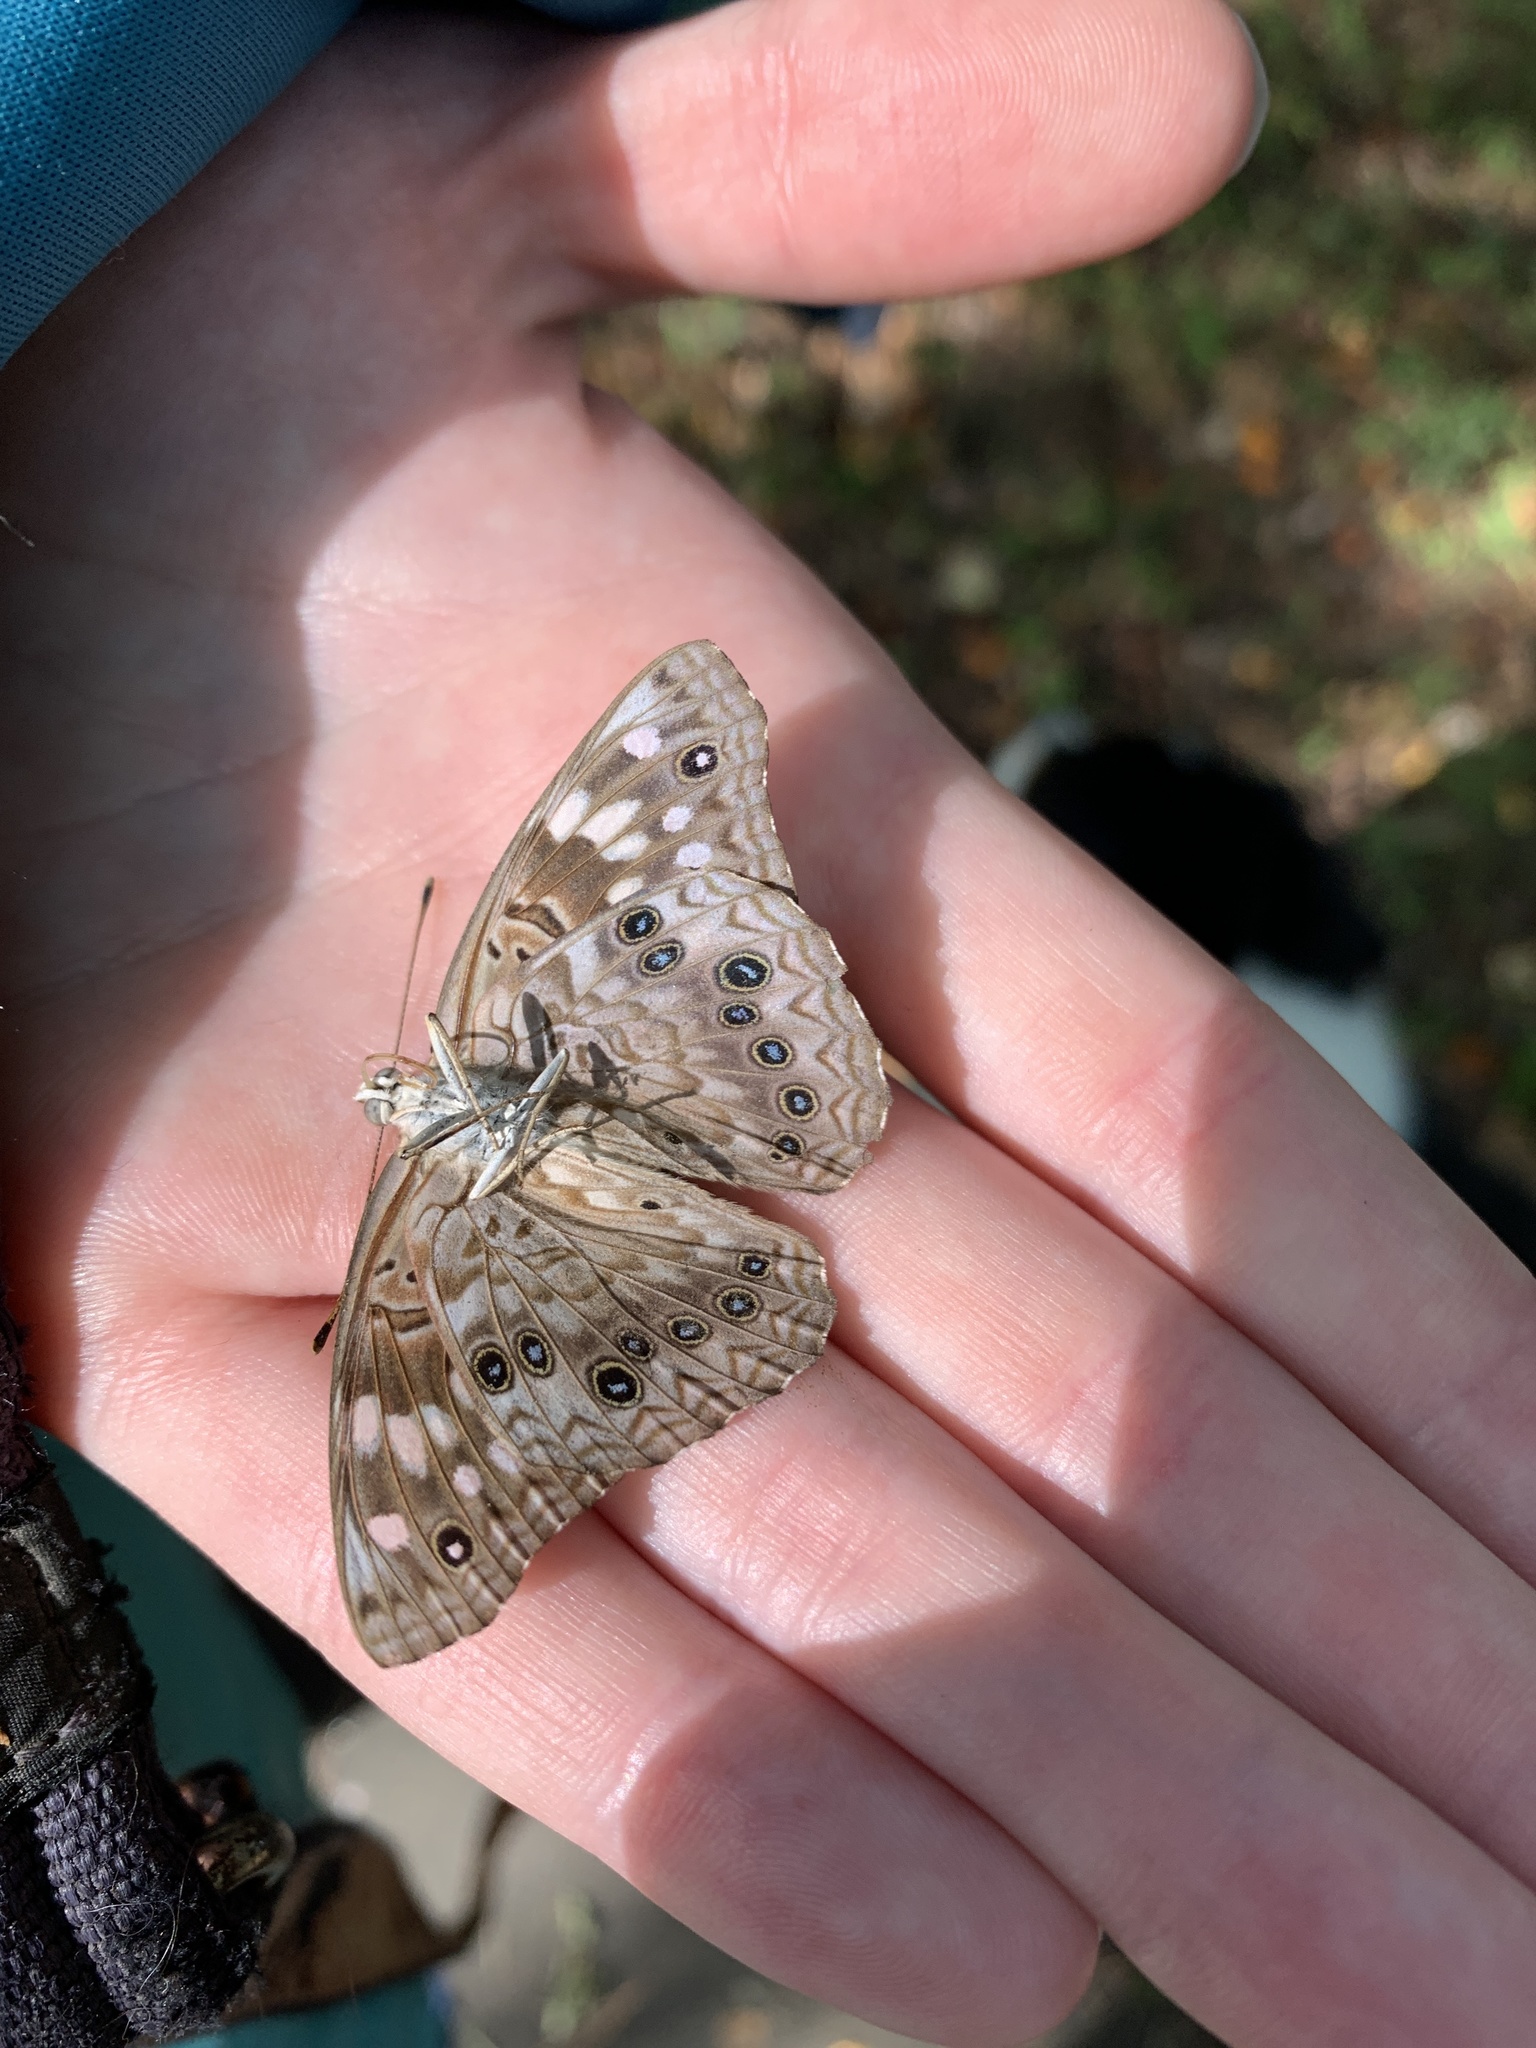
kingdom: Animalia
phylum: Arthropoda
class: Insecta
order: Lepidoptera
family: Nymphalidae
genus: Asterocampa
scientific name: Asterocampa celtis
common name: Hackberry emperor
